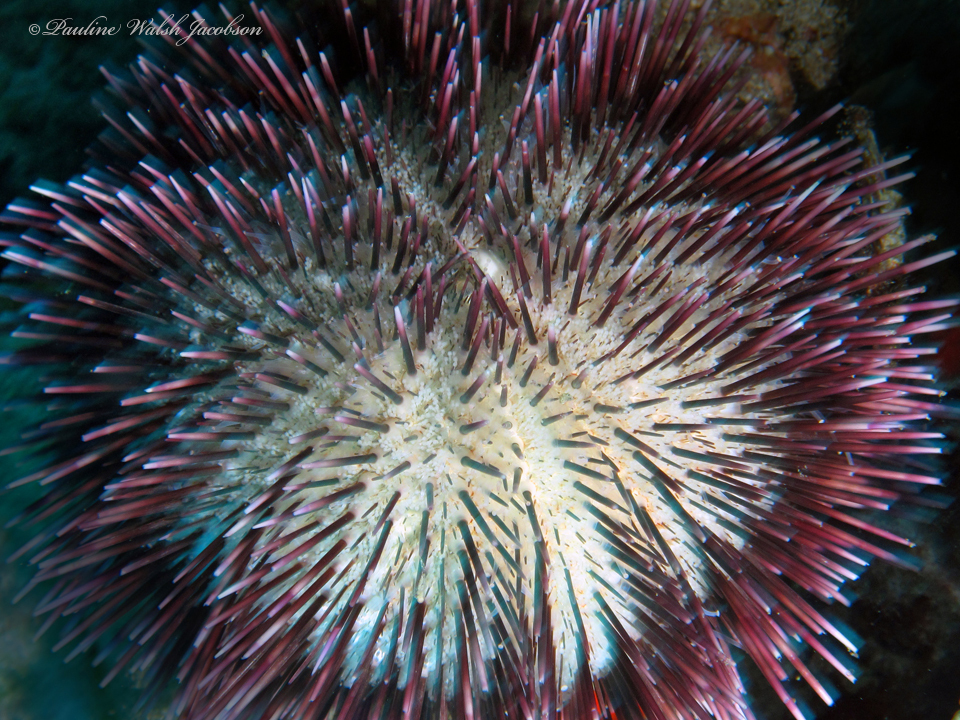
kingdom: Animalia
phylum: Echinodermata
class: Echinoidea
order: Camarodonta
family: Toxopneustidae
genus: Pseudoboletia
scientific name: Pseudoboletia indiana
